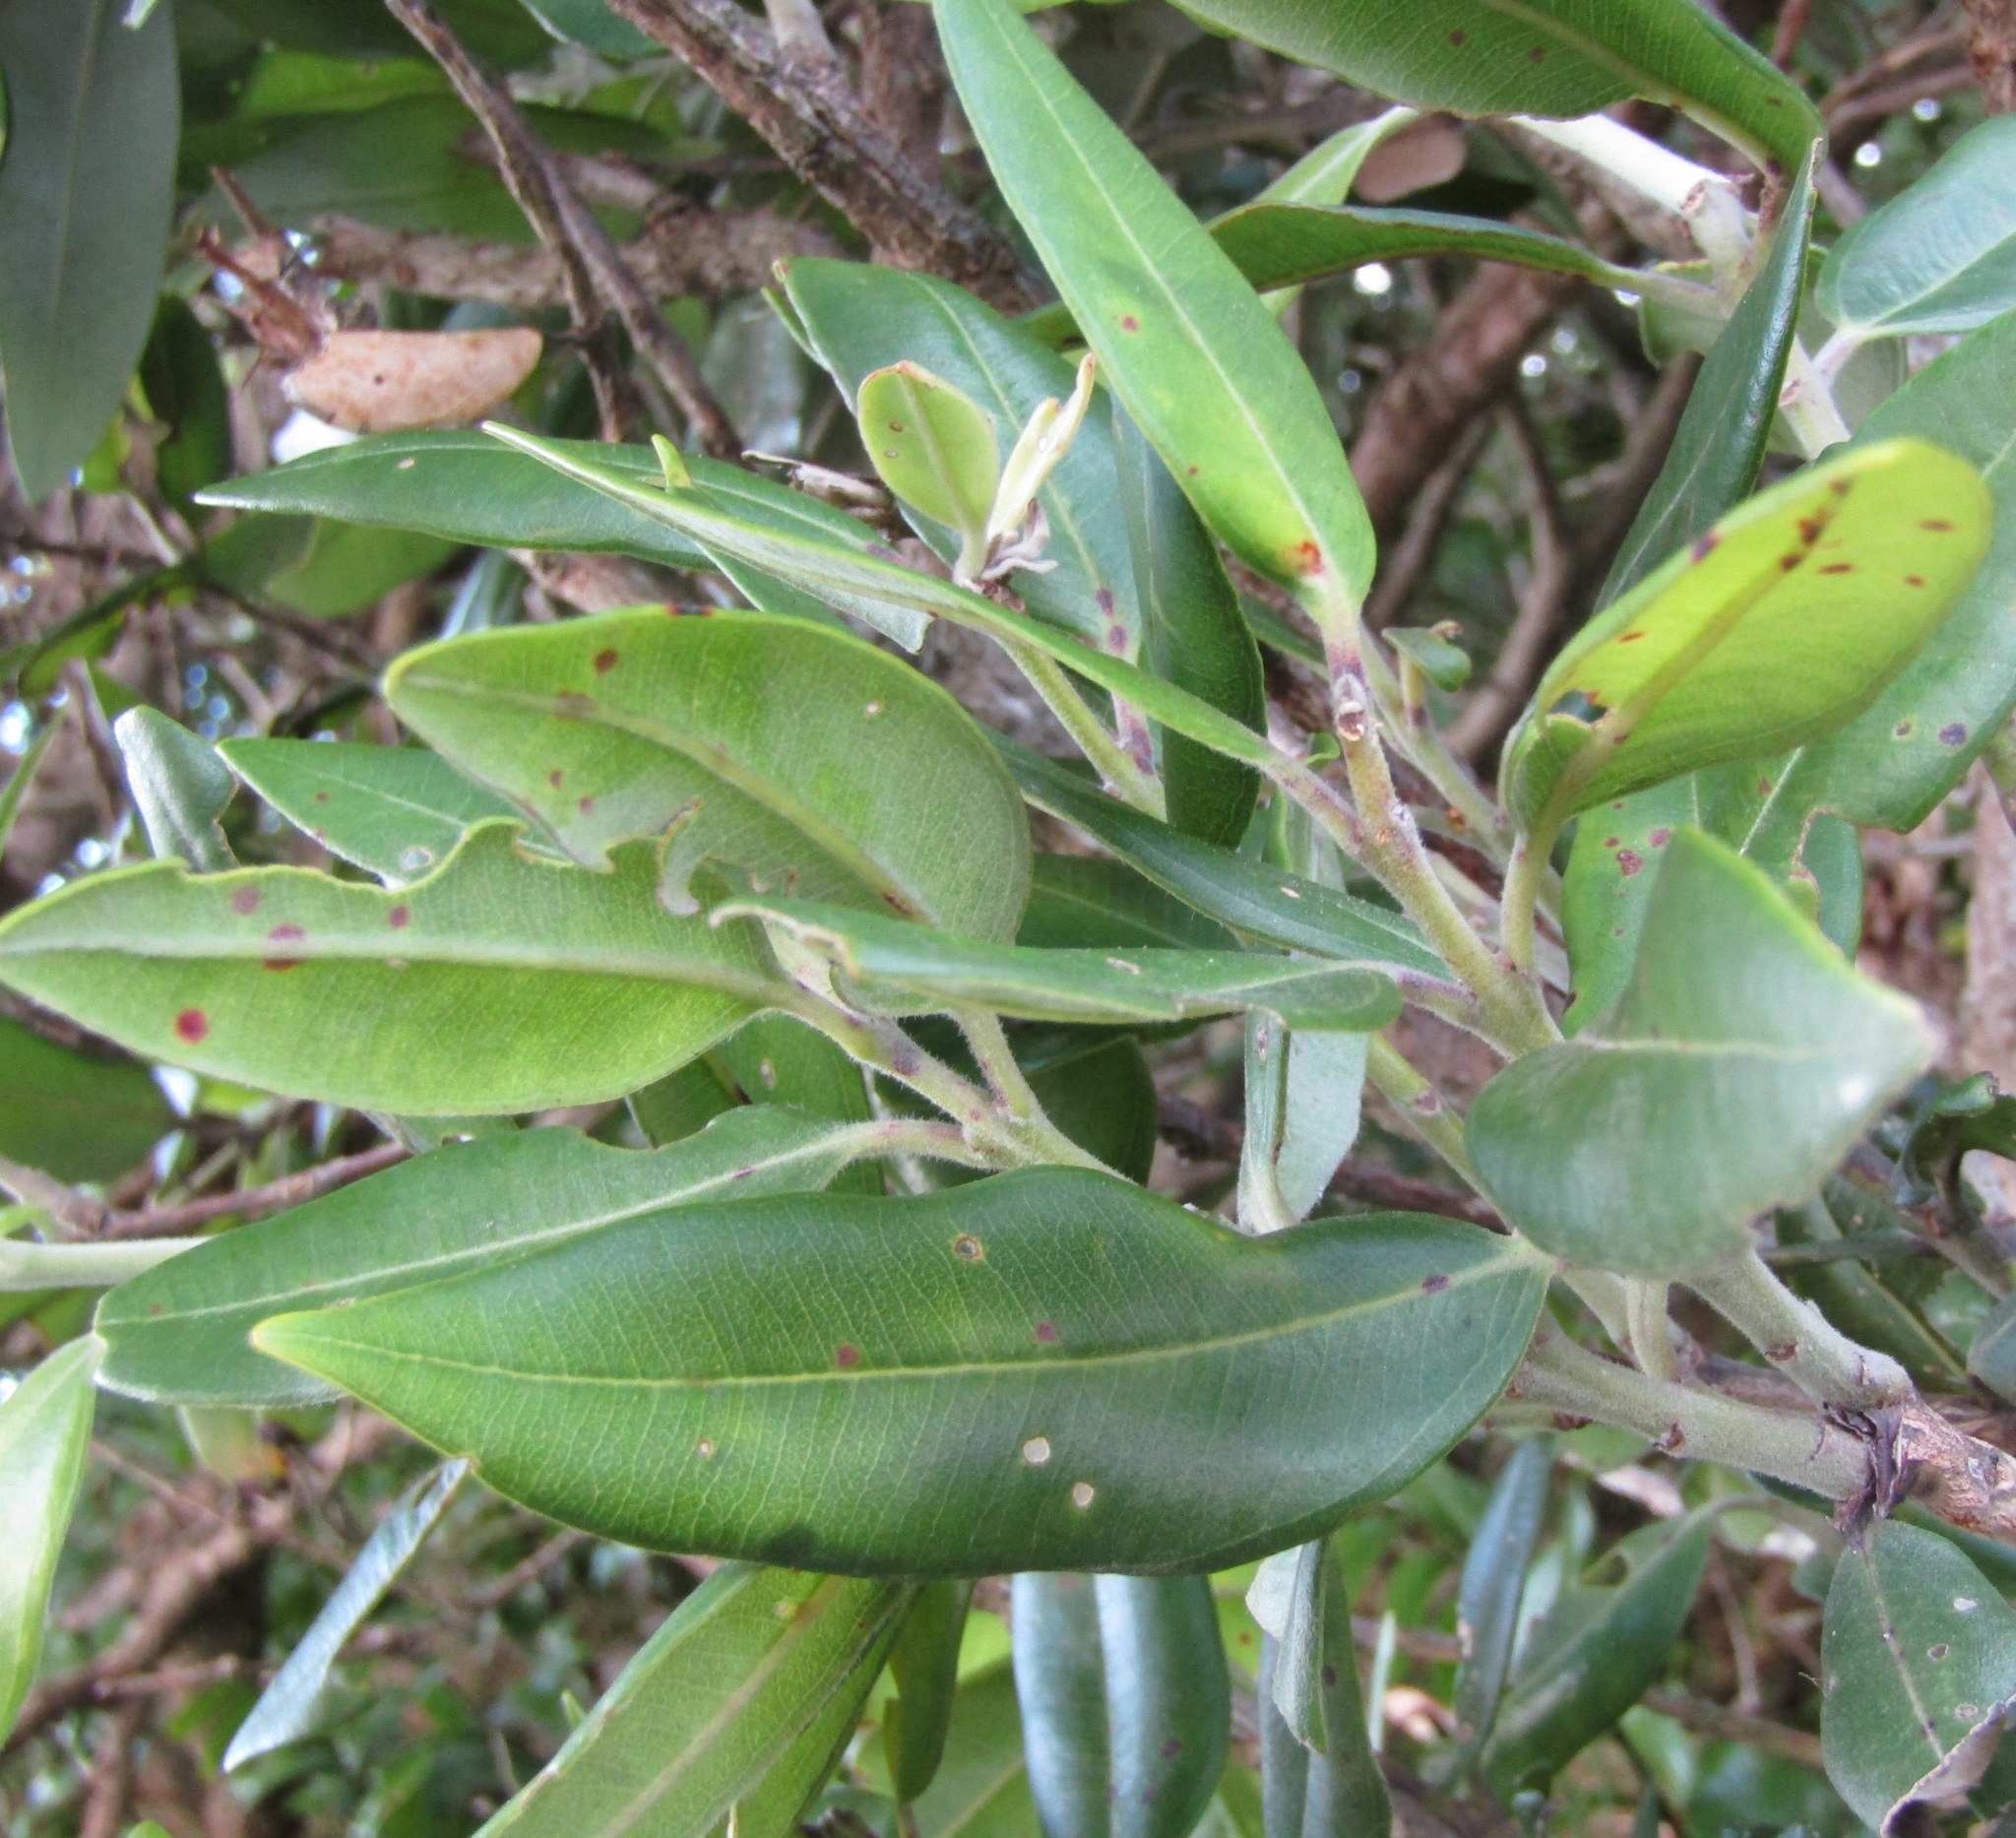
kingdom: Plantae
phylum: Tracheophyta
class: Magnoliopsida
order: Myrtales
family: Myrtaceae
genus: Metrosideros
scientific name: Metrosideros excelsa
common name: New zealand christmastree
